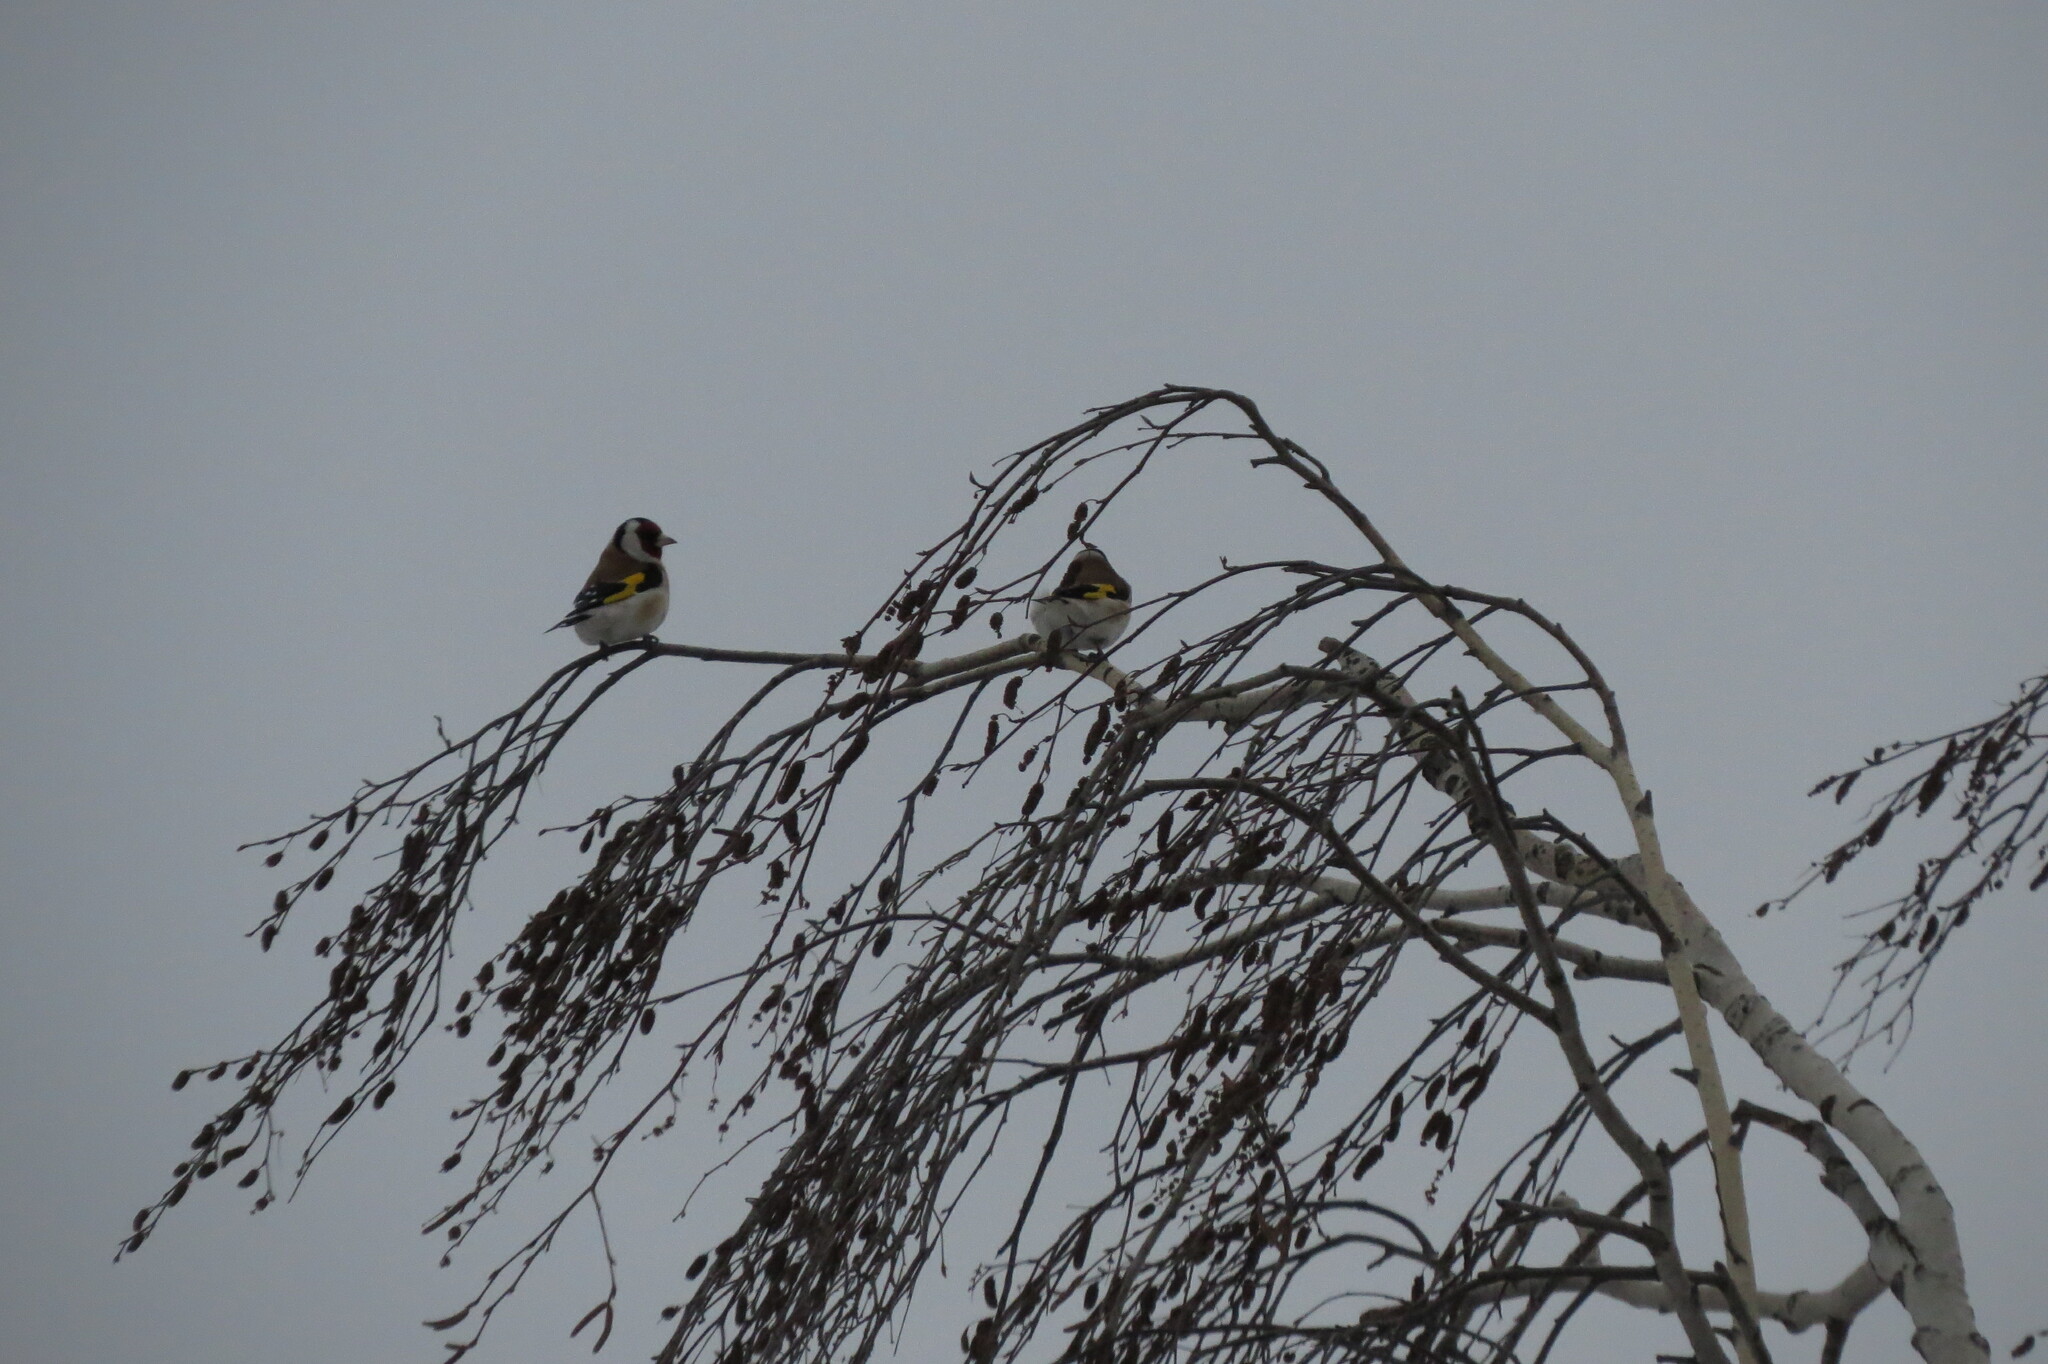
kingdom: Animalia
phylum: Chordata
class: Aves
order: Passeriformes
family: Fringillidae
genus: Carduelis
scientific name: Carduelis carduelis
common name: European goldfinch
